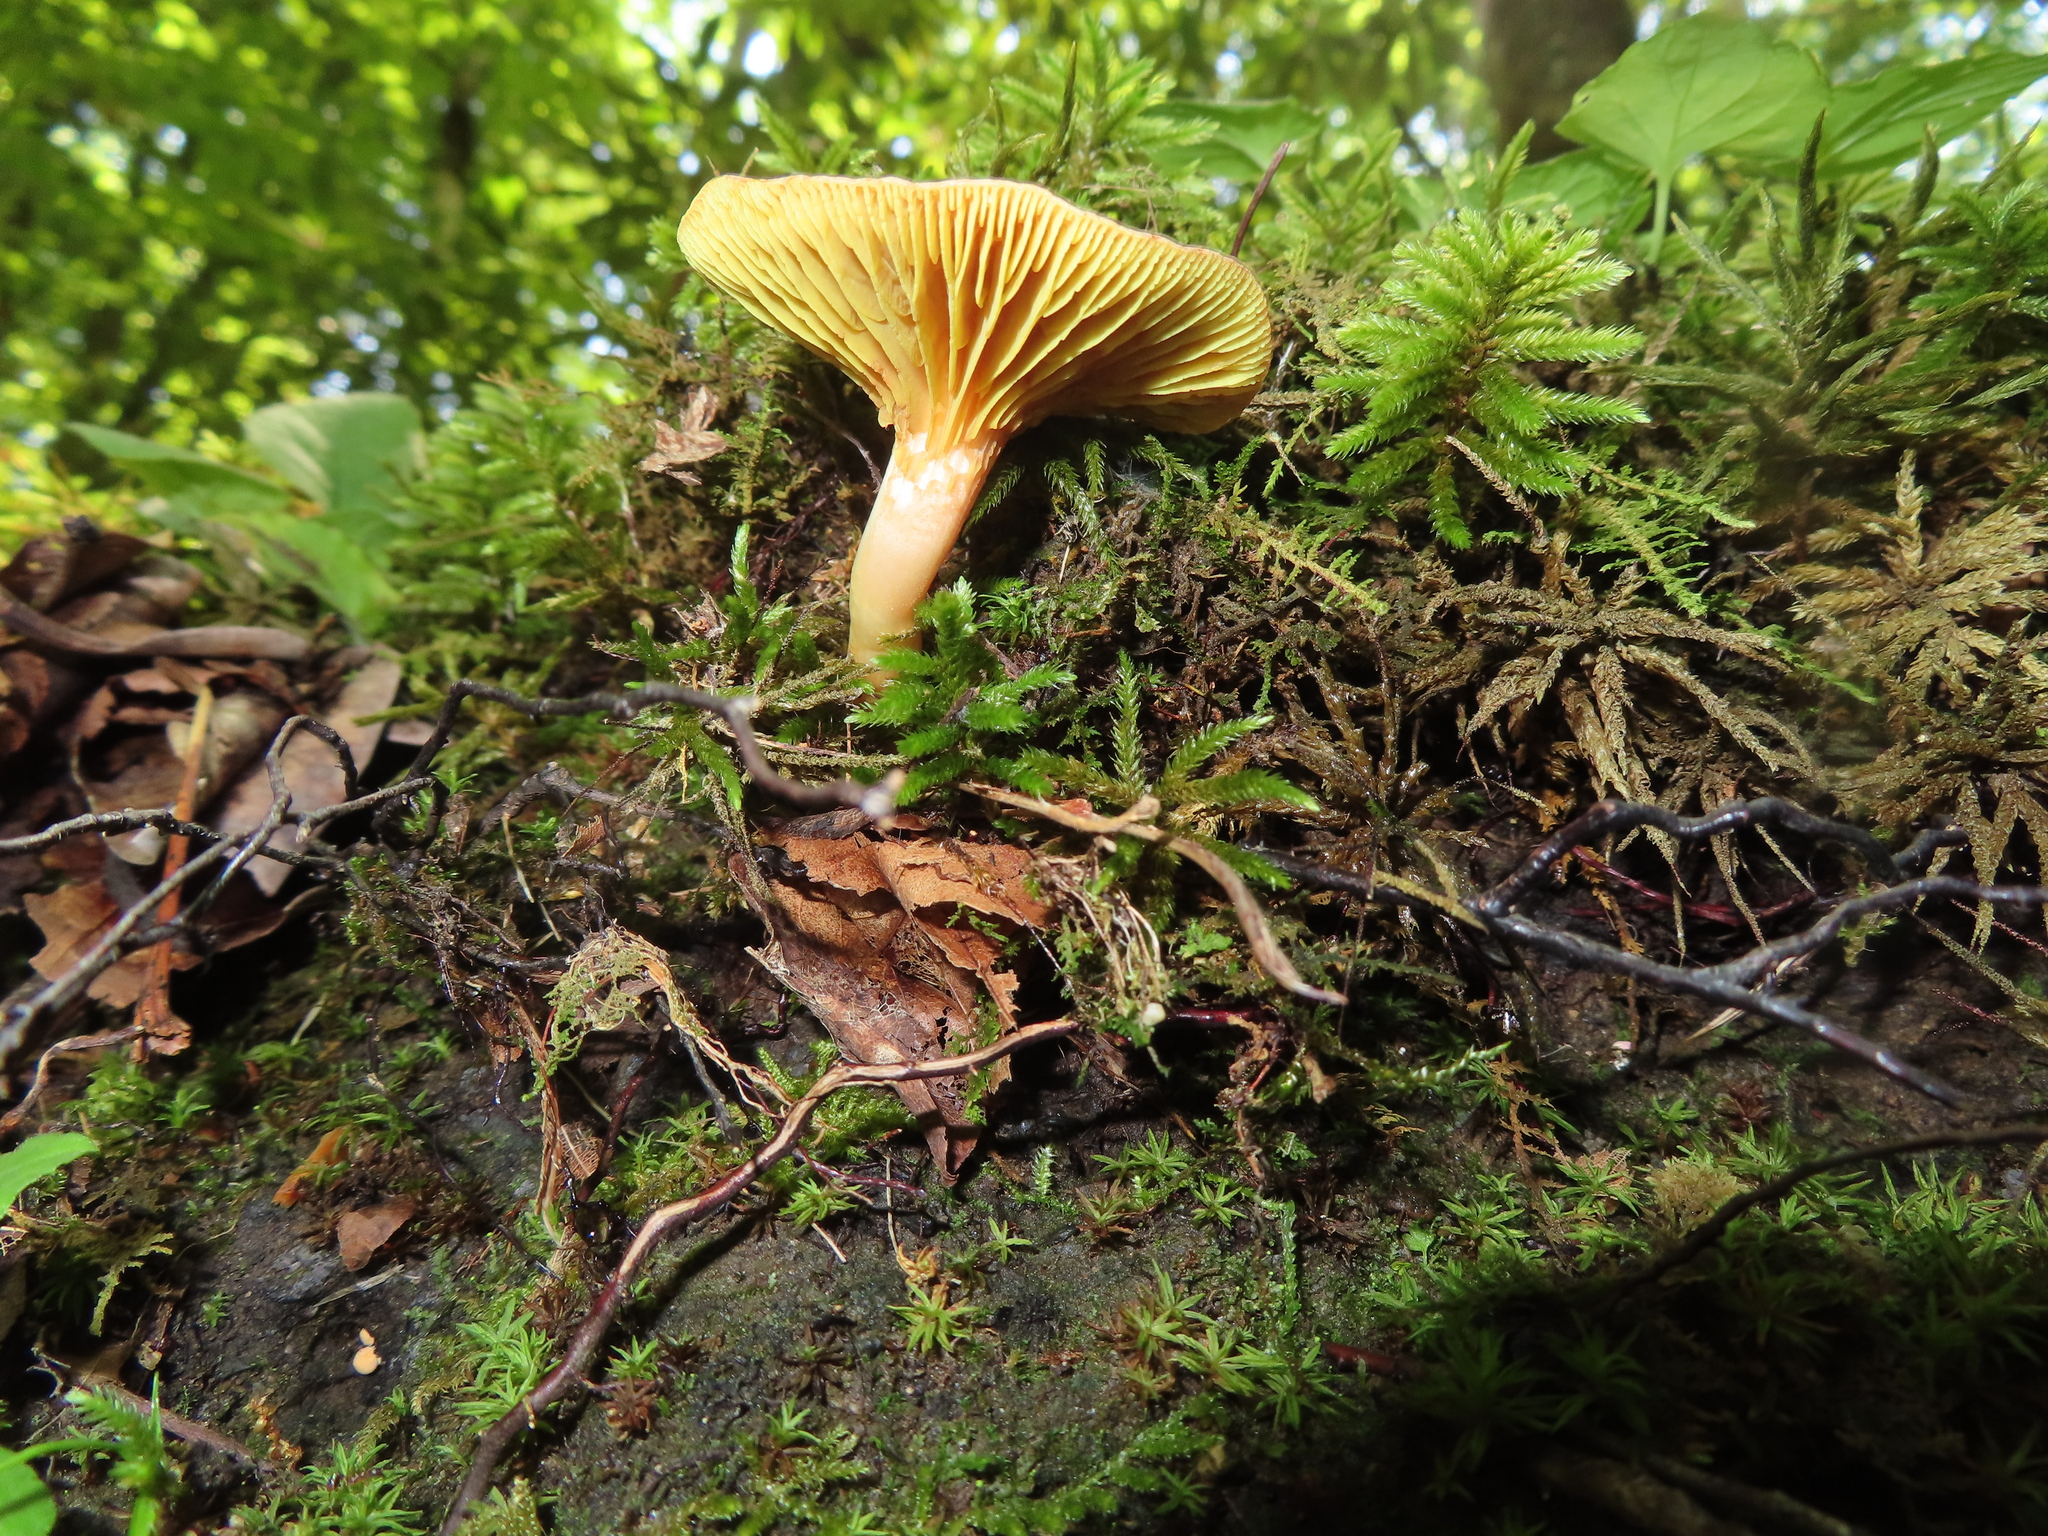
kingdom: Fungi
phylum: Basidiomycota
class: Agaricomycetes
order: Boletales
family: Boletaceae
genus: Phylloporus
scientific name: Phylloporus rhodoxanthus
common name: Golden gilled bolete
